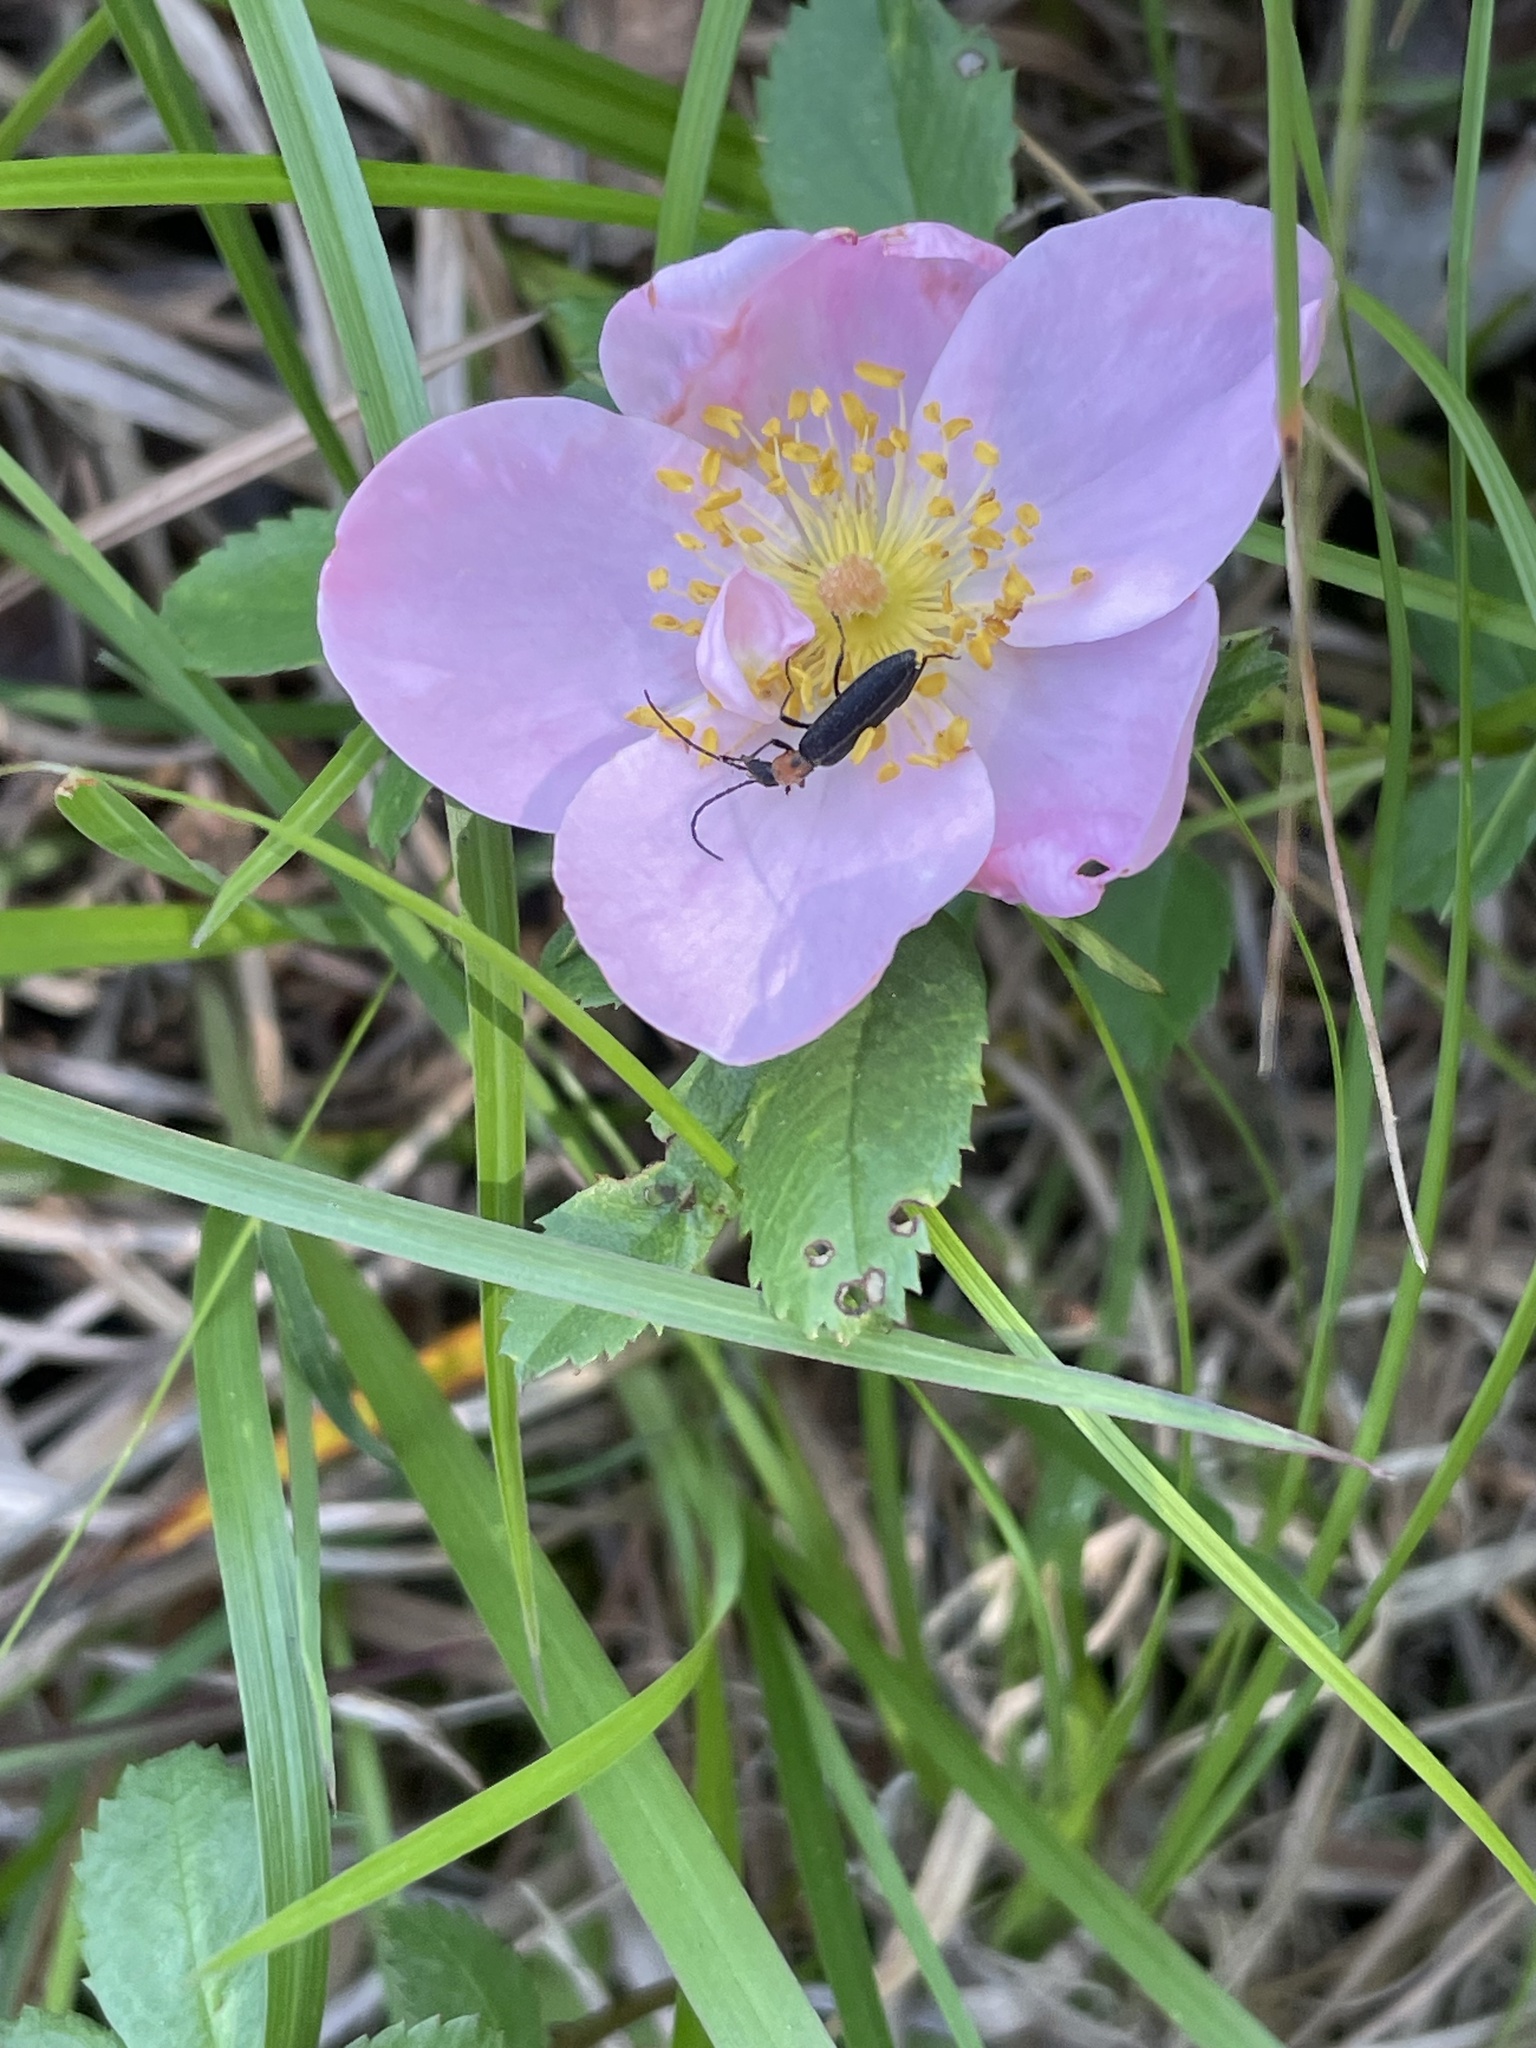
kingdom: Plantae
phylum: Tracheophyta
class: Magnoliopsida
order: Rosales
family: Rosaceae
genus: Rosa
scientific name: Rosa carolina
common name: Pasture rose
